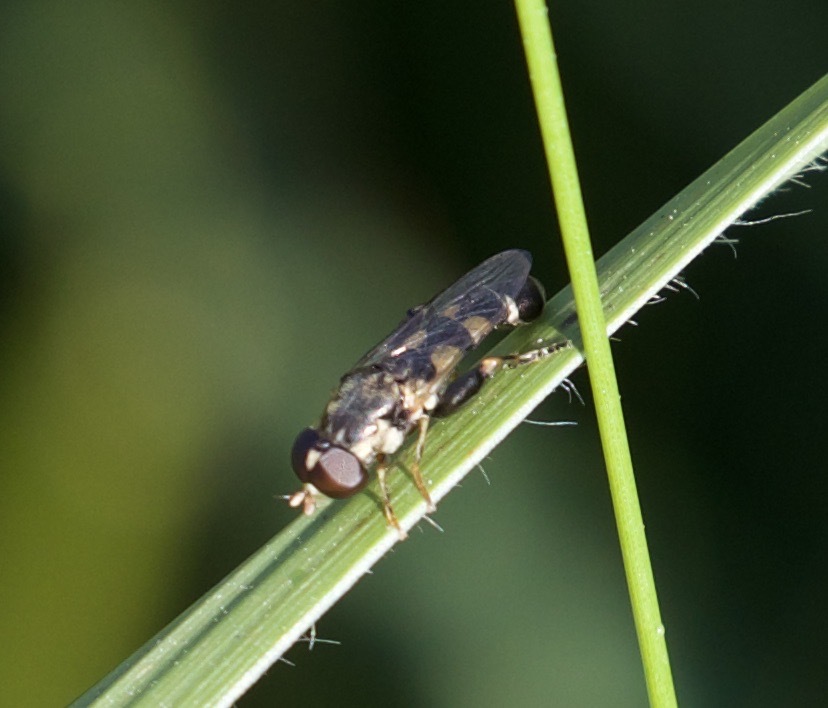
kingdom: Animalia
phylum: Arthropoda
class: Insecta
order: Diptera
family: Syrphidae
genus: Syritta
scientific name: Syritta pipiens
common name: Hover fly
